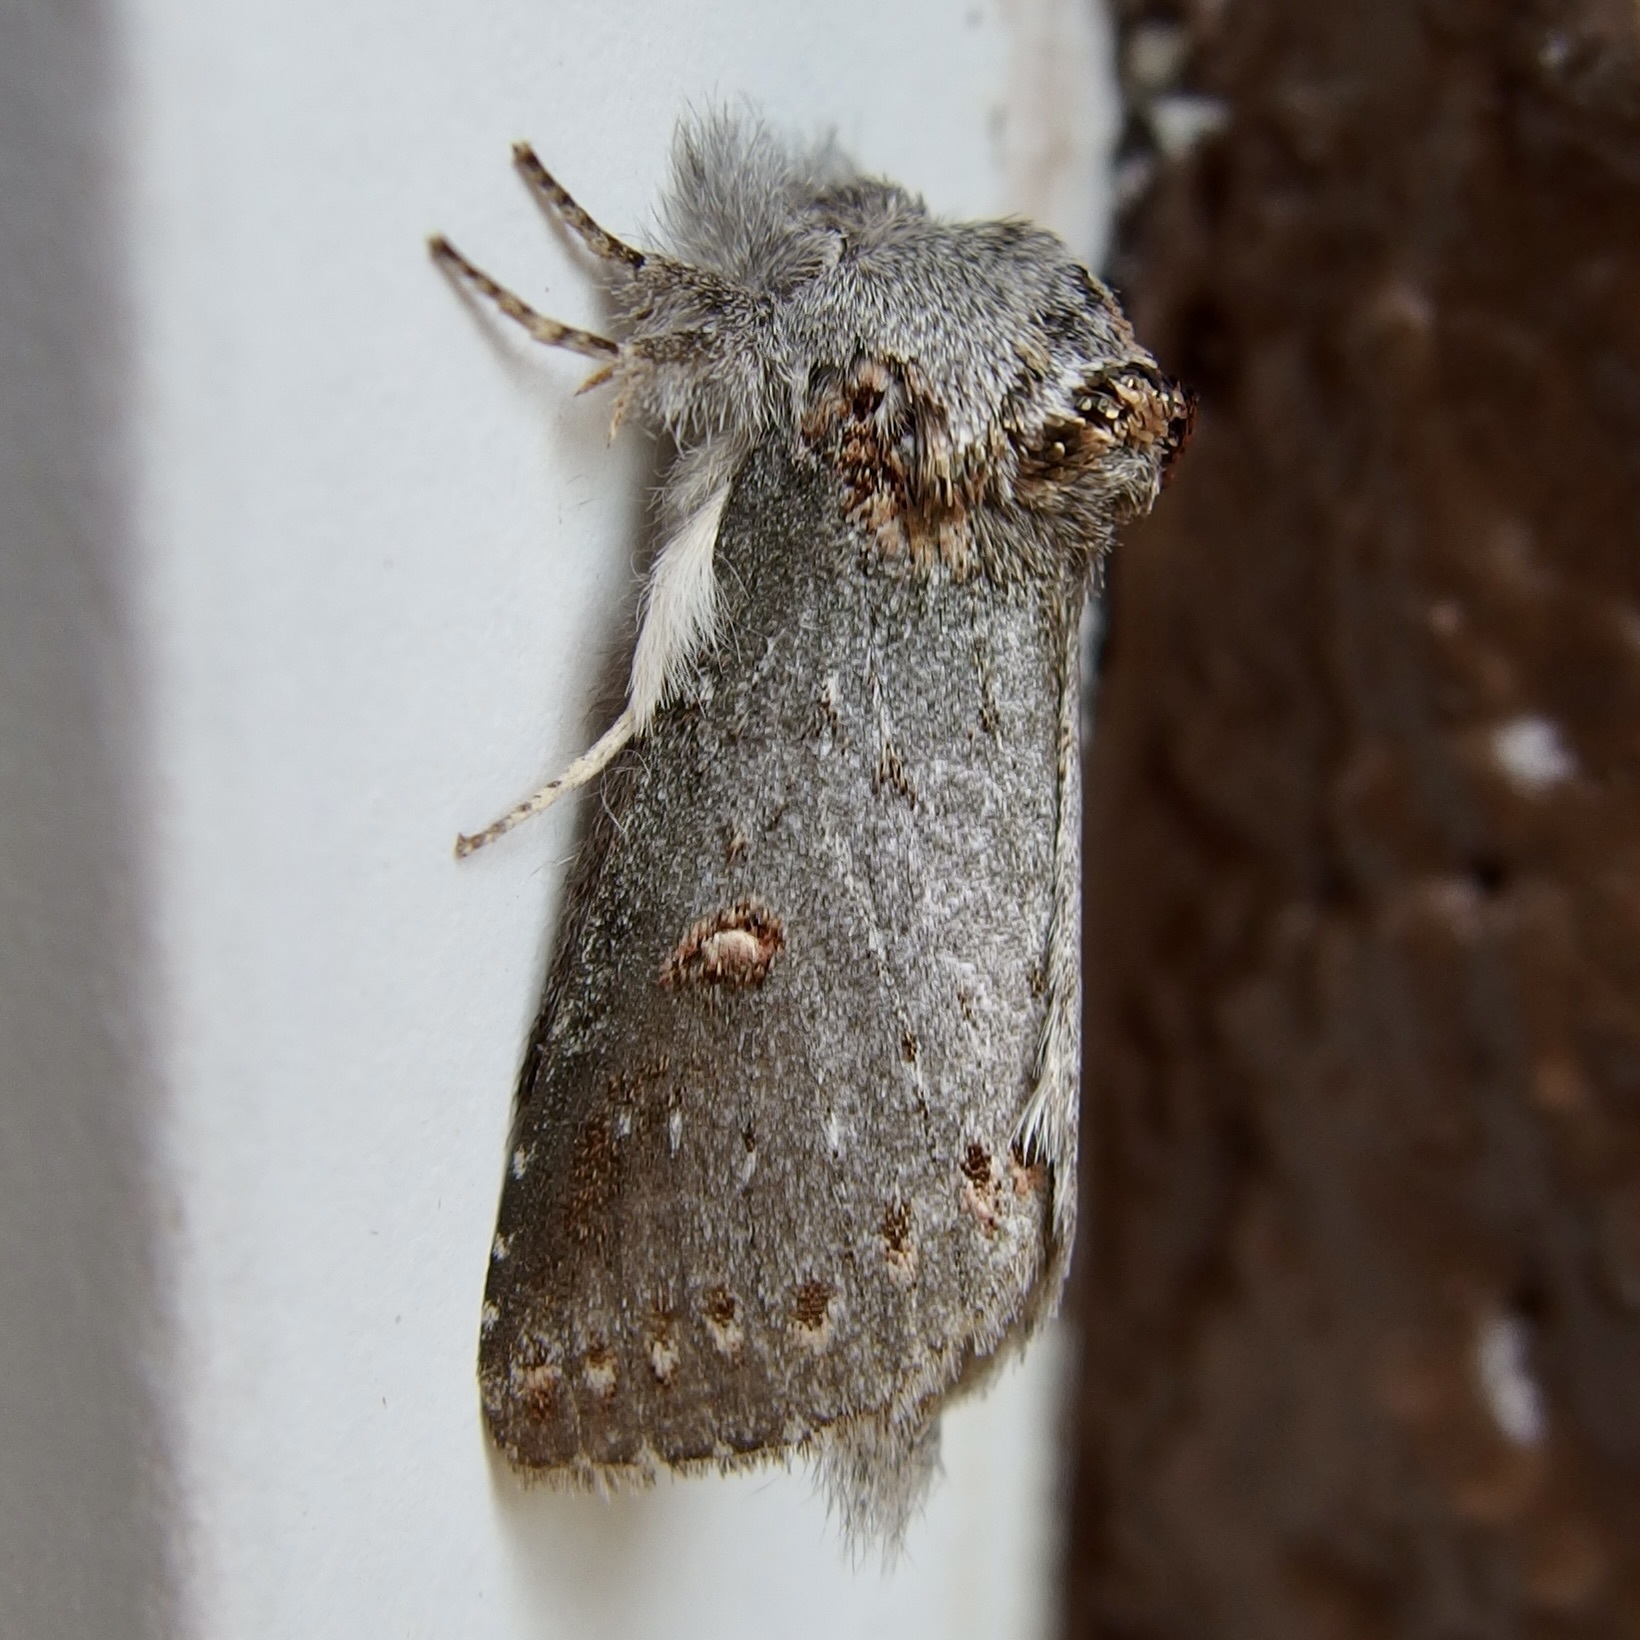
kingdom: Animalia
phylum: Arthropoda
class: Insecta
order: Lepidoptera
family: Notodontidae
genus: Theroa
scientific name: Theroa zethus
